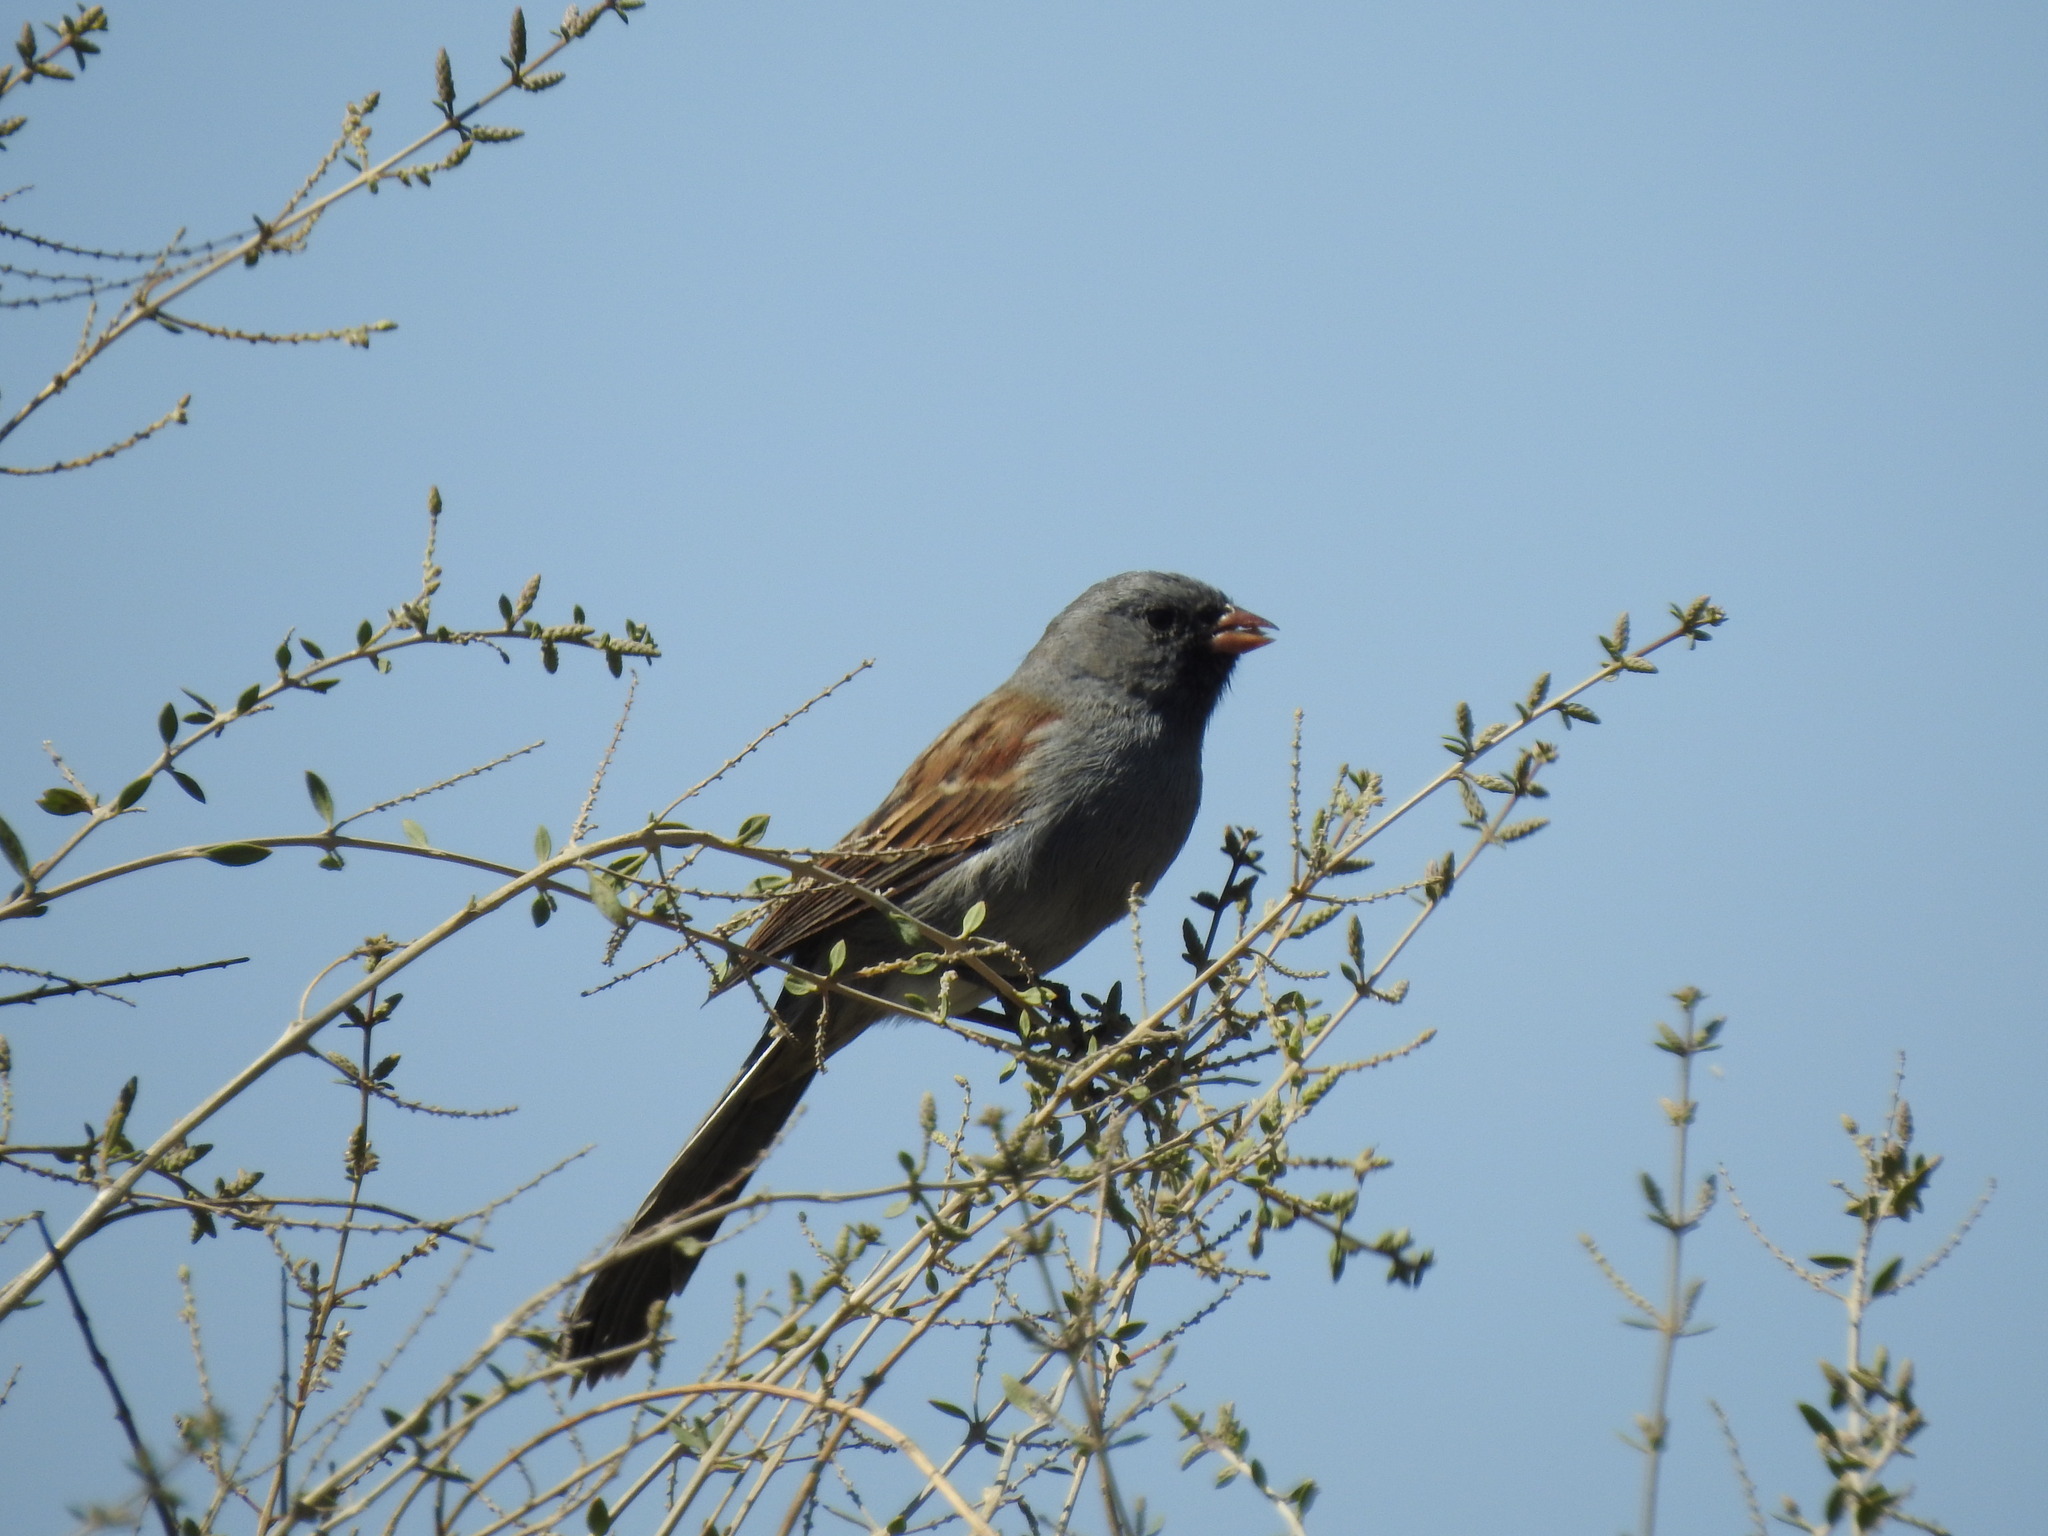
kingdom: Animalia
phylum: Chordata
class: Aves
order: Passeriformes
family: Passerellidae
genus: Spizella
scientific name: Spizella atrogularis
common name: Black-chinned sparrow
